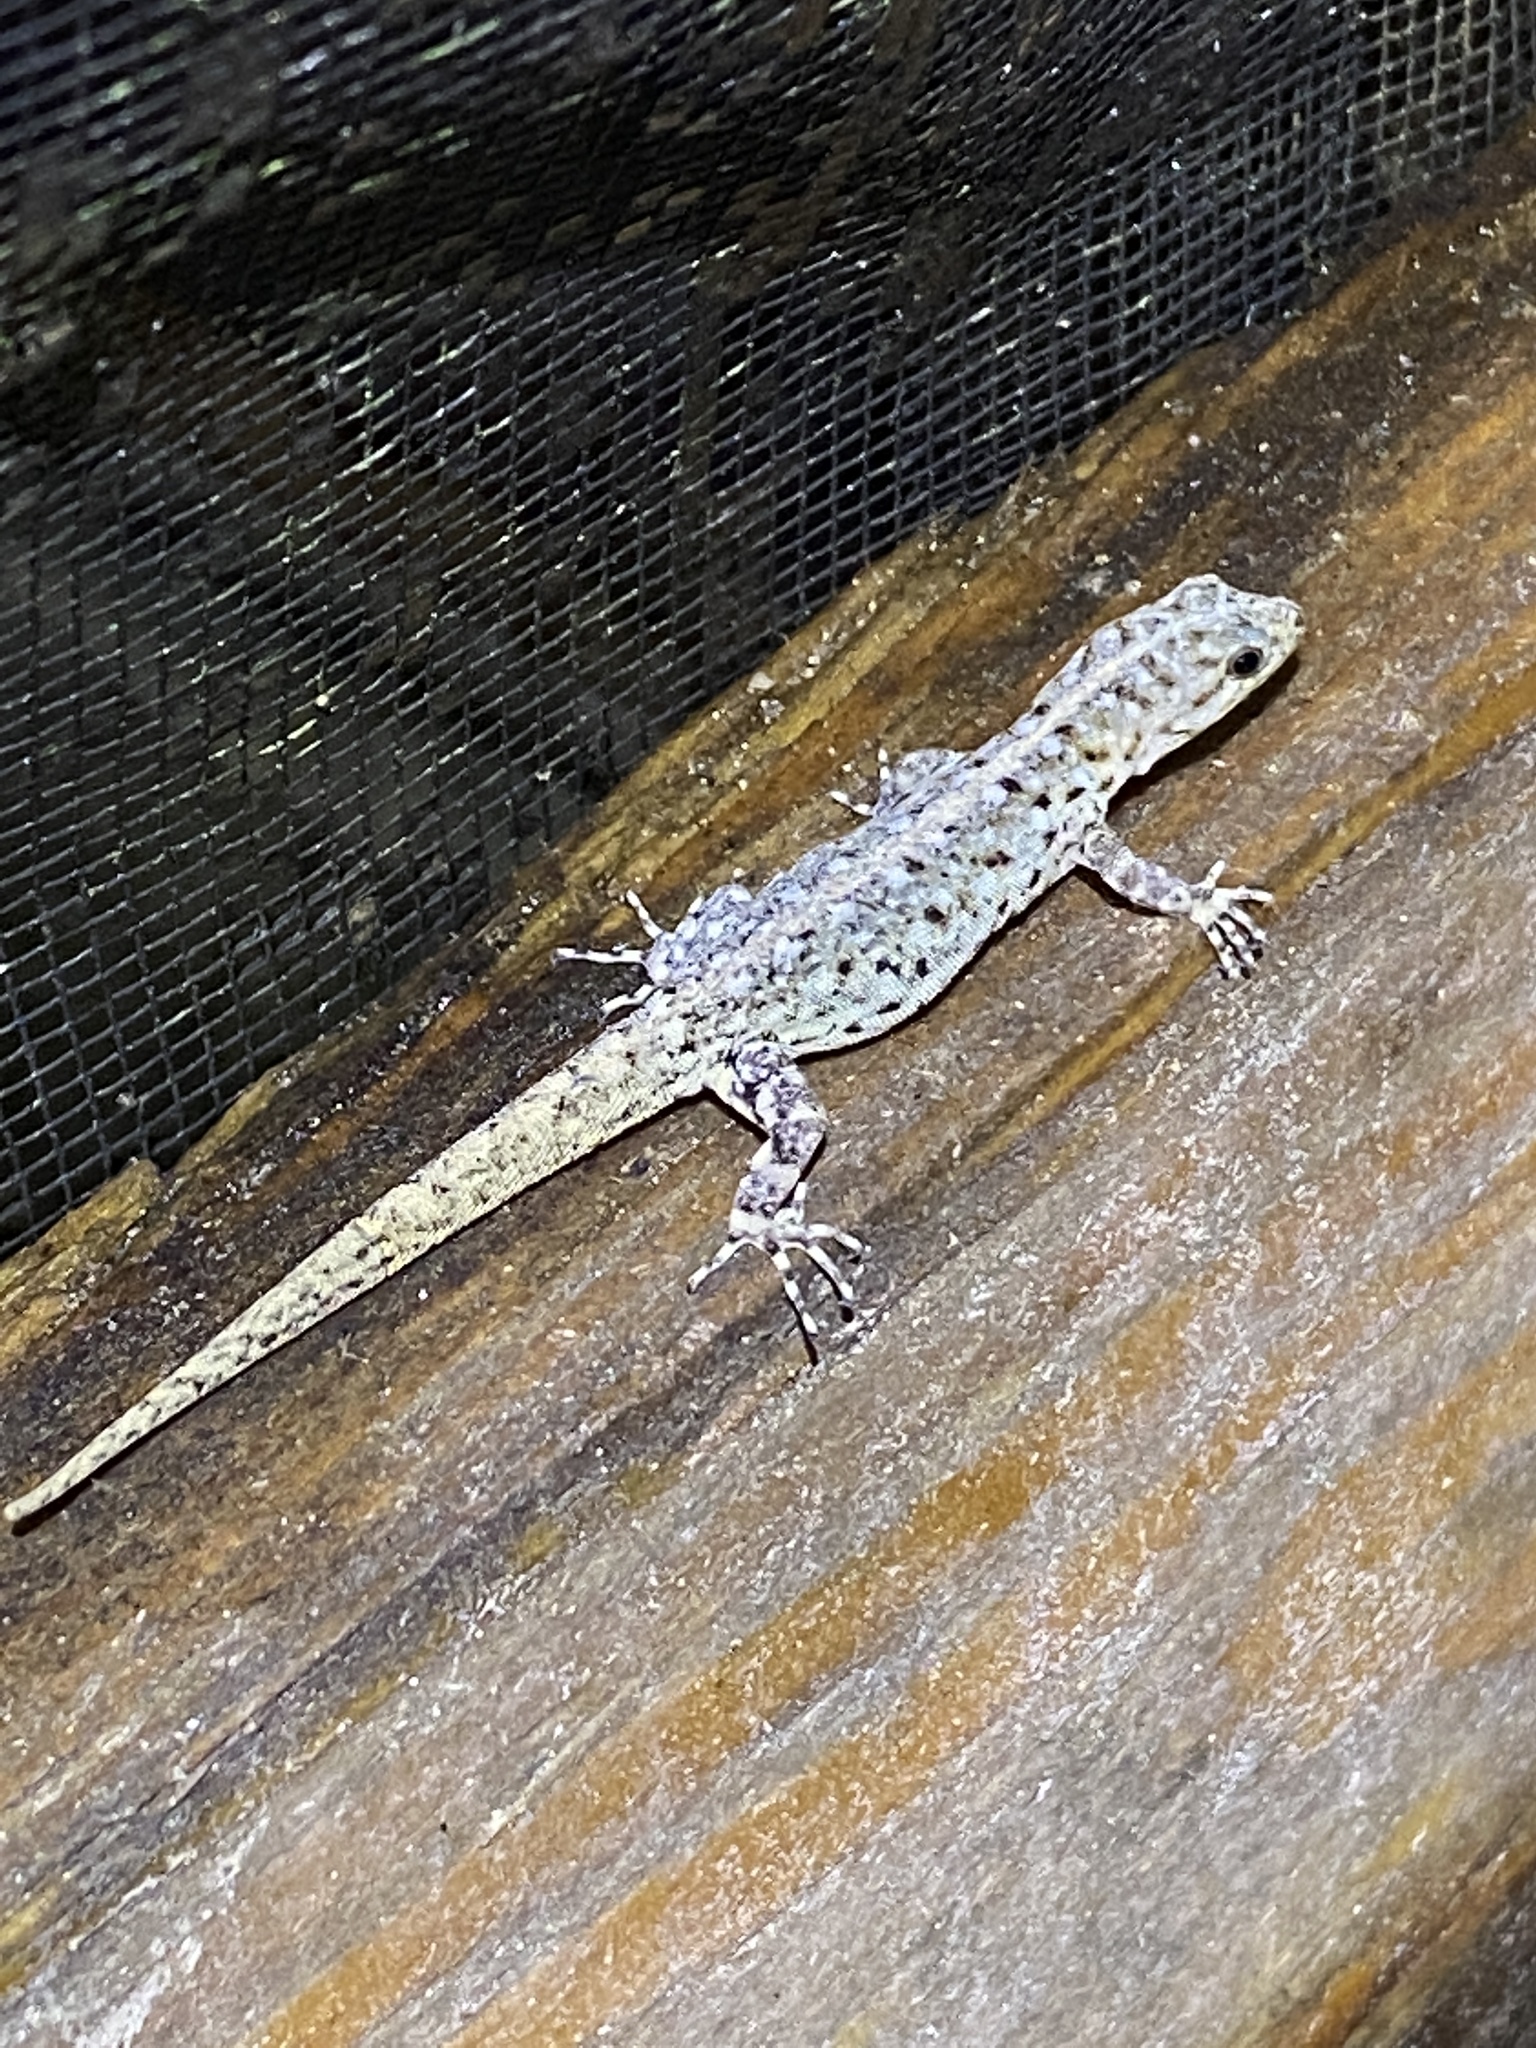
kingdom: Animalia
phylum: Chordata
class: Squamata
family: Sphaerodactylidae
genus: Gonatodes
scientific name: Gonatodes vittatus
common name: Wiegmann's striped gecko
